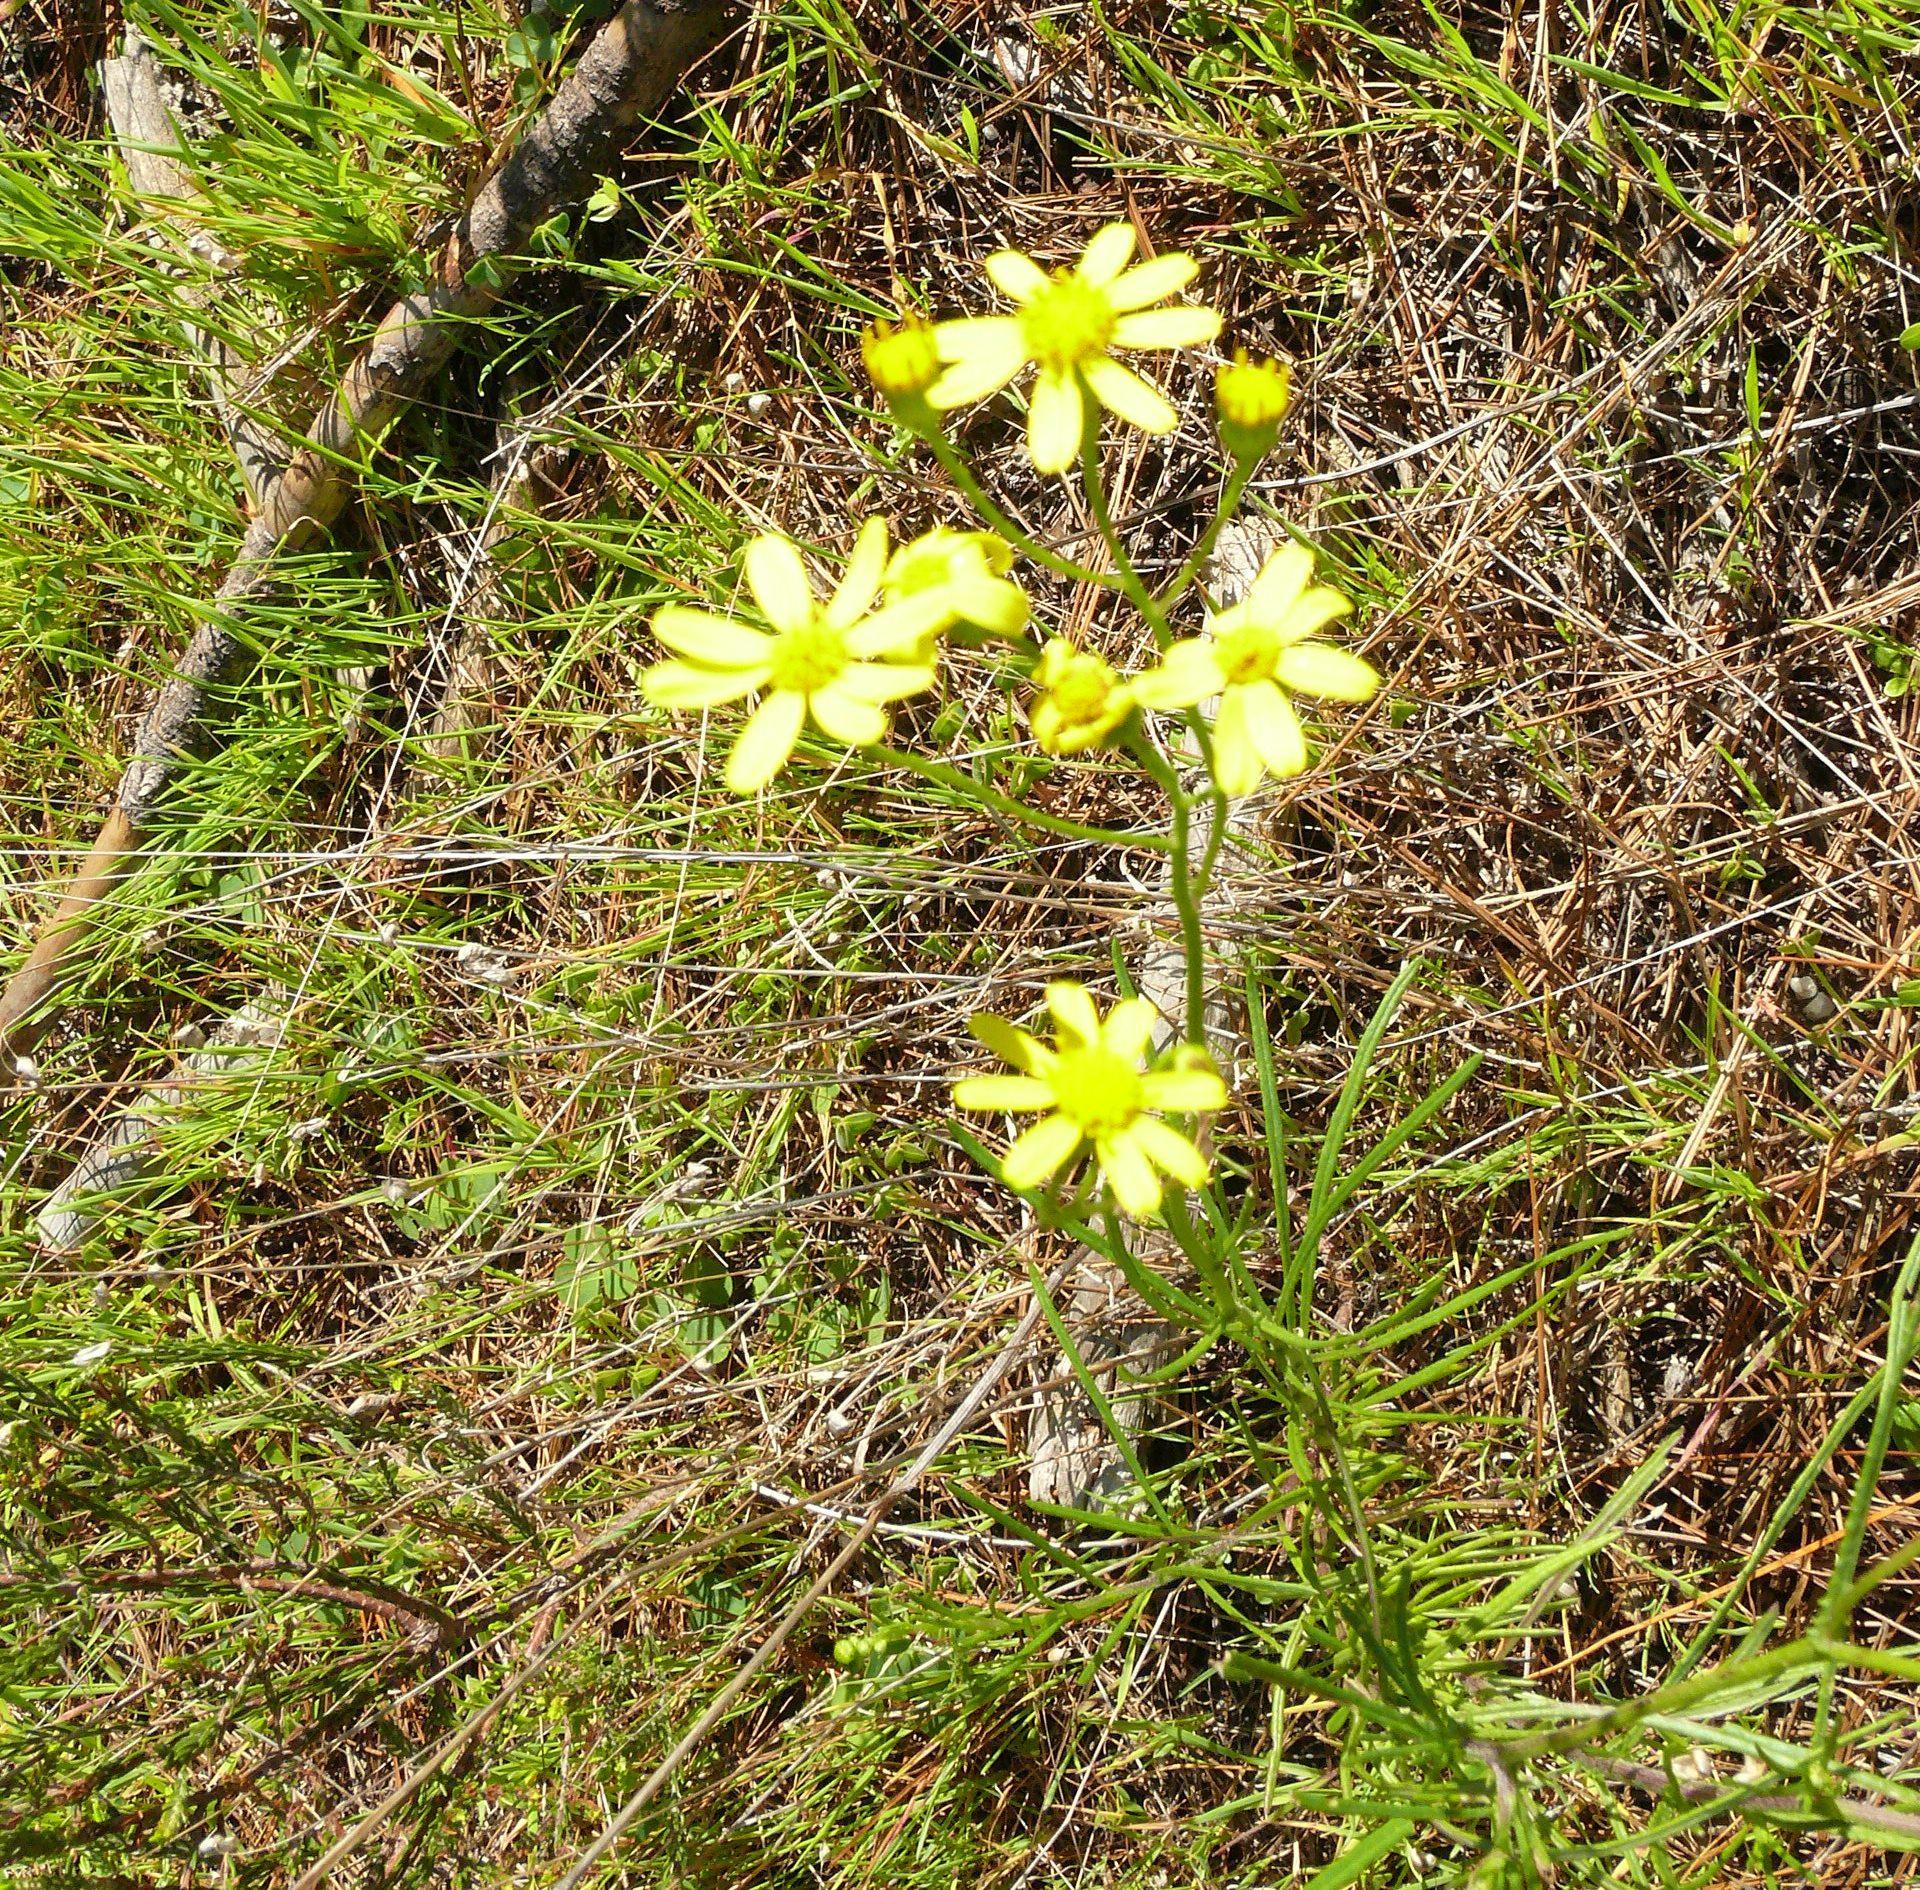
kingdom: Plantae
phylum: Tracheophyta
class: Magnoliopsida
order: Asterales
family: Asteraceae
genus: Senecio
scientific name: Senecio burchellii
